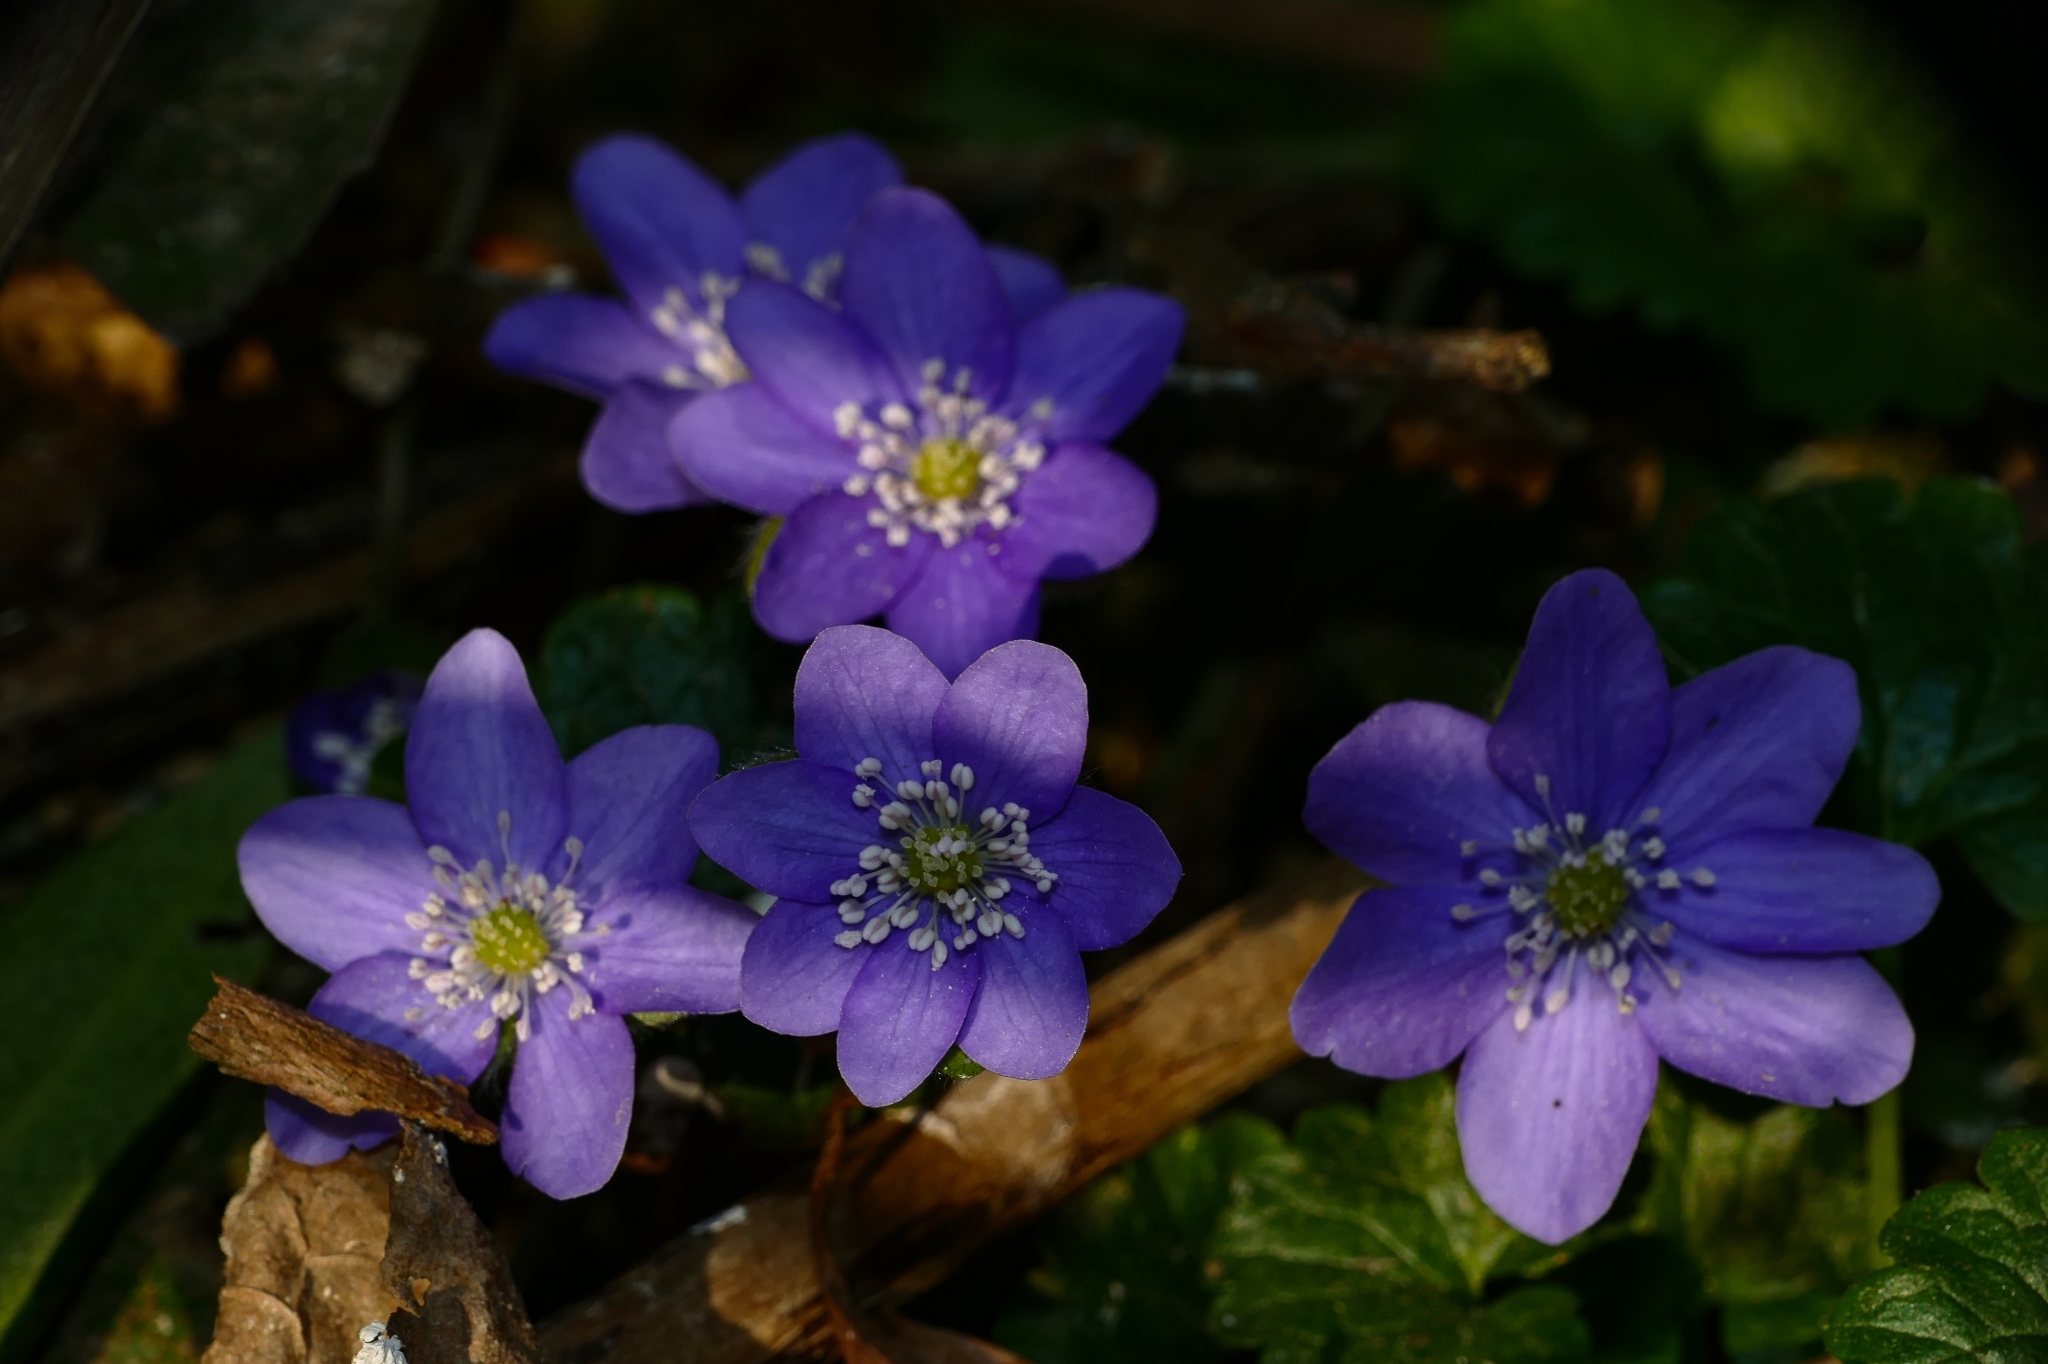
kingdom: Plantae
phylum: Tracheophyta
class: Magnoliopsida
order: Ranunculales
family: Ranunculaceae
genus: Hepatica
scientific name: Hepatica nobilis
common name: Liverleaf
